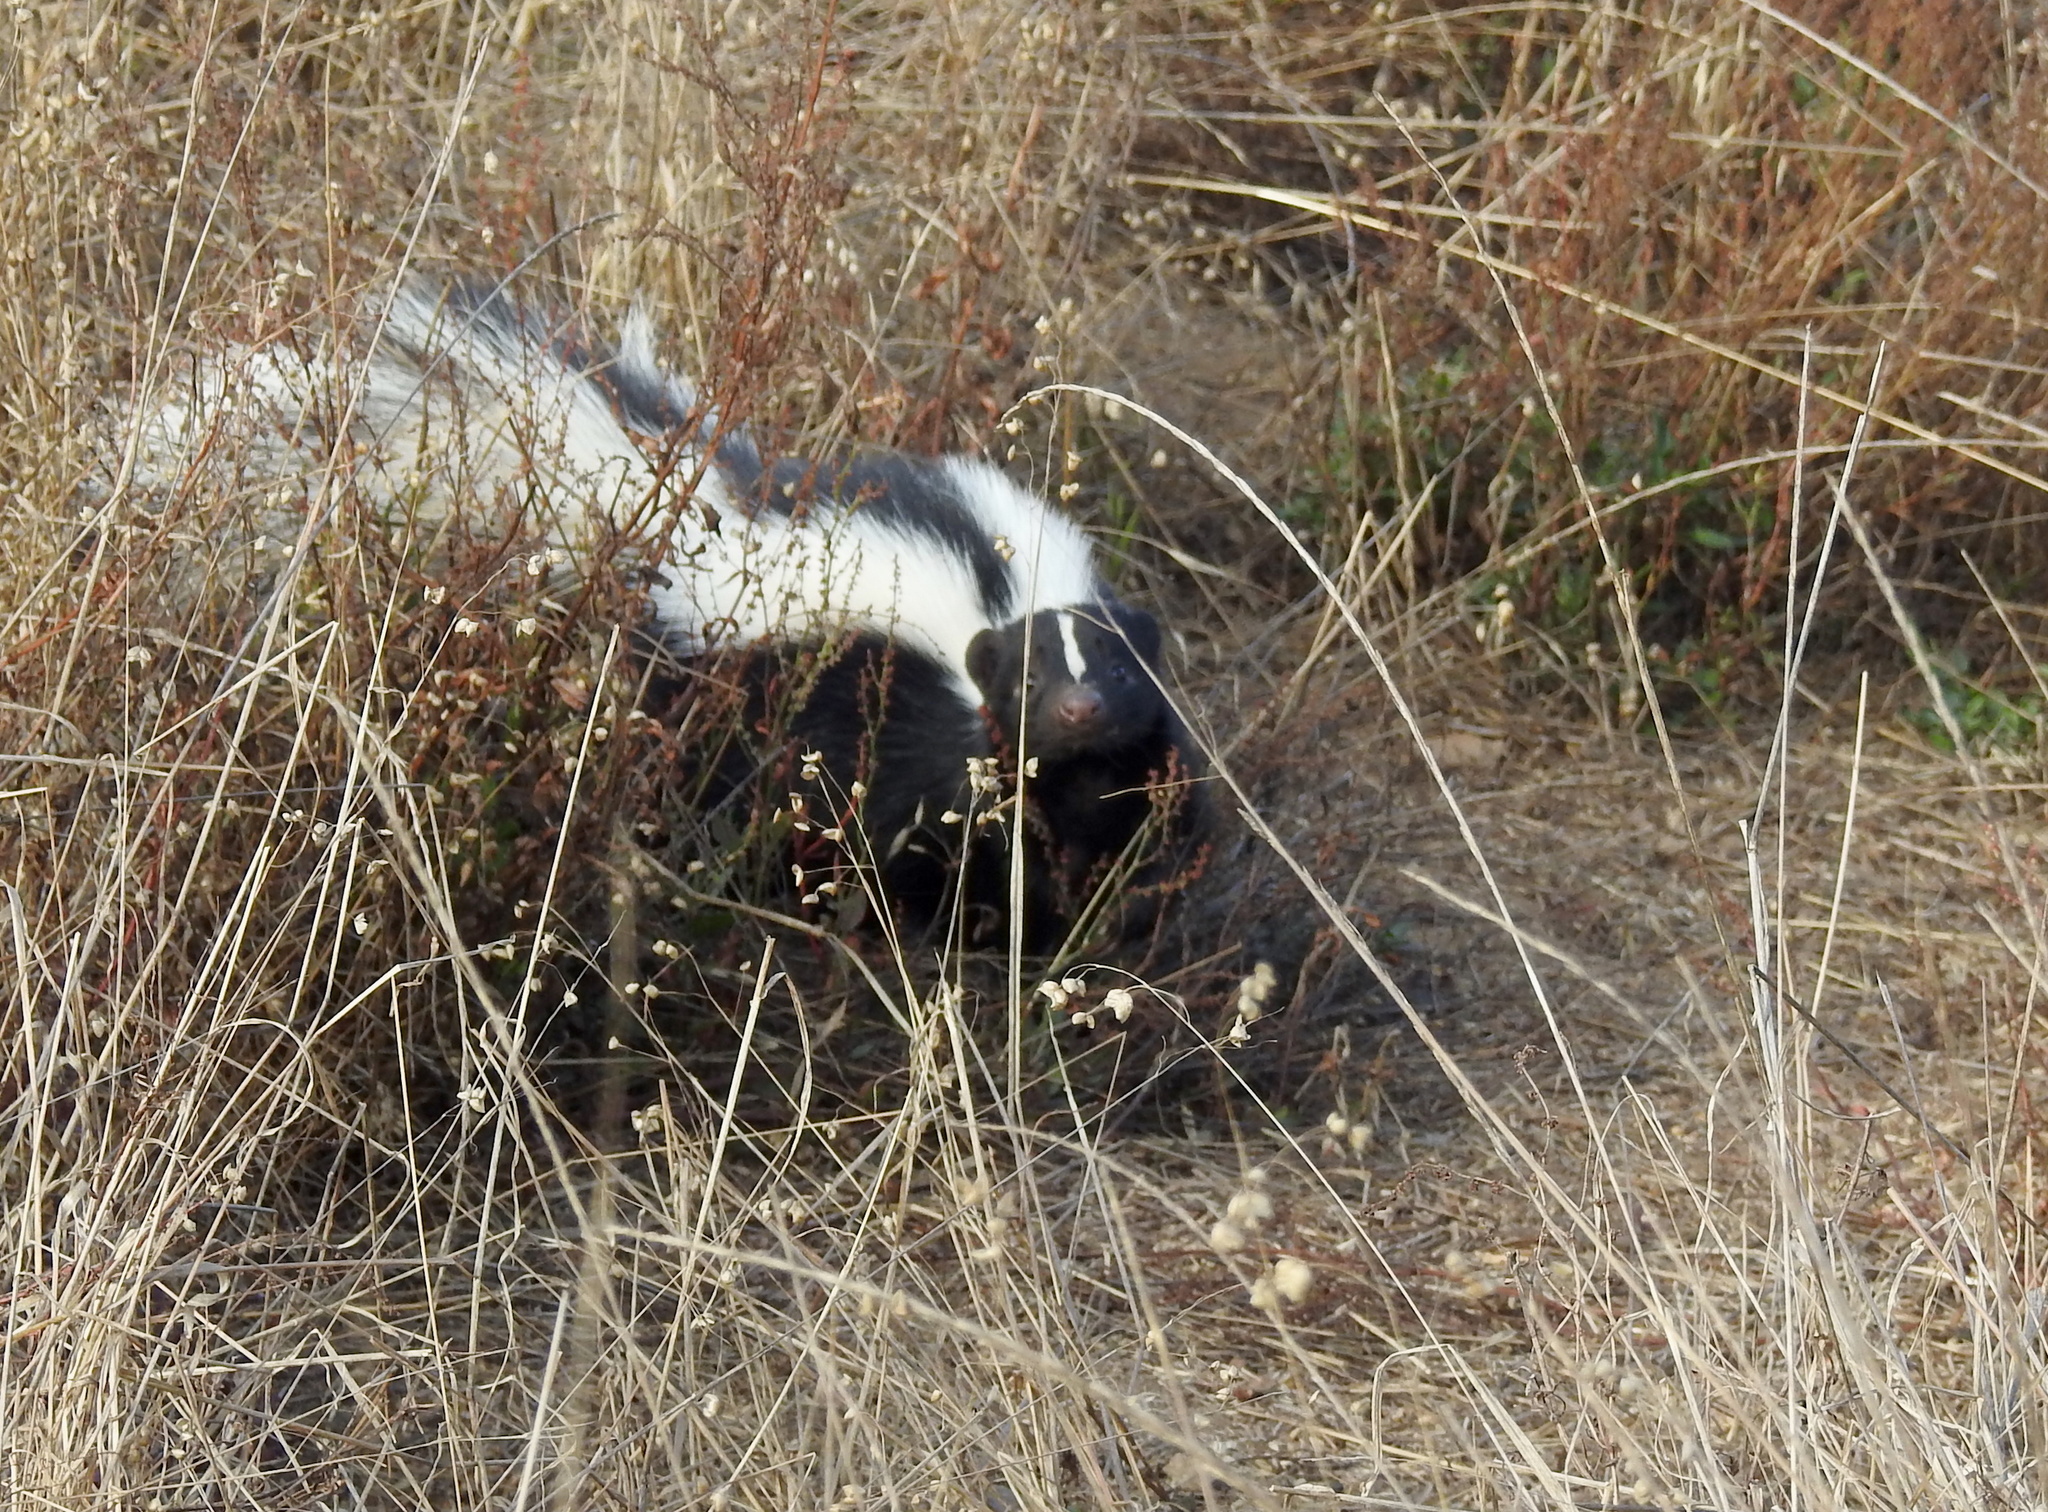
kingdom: Animalia
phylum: Chordata
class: Mammalia
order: Carnivora
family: Mephitidae
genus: Mephitis
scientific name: Mephitis mephitis
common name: Striped skunk
